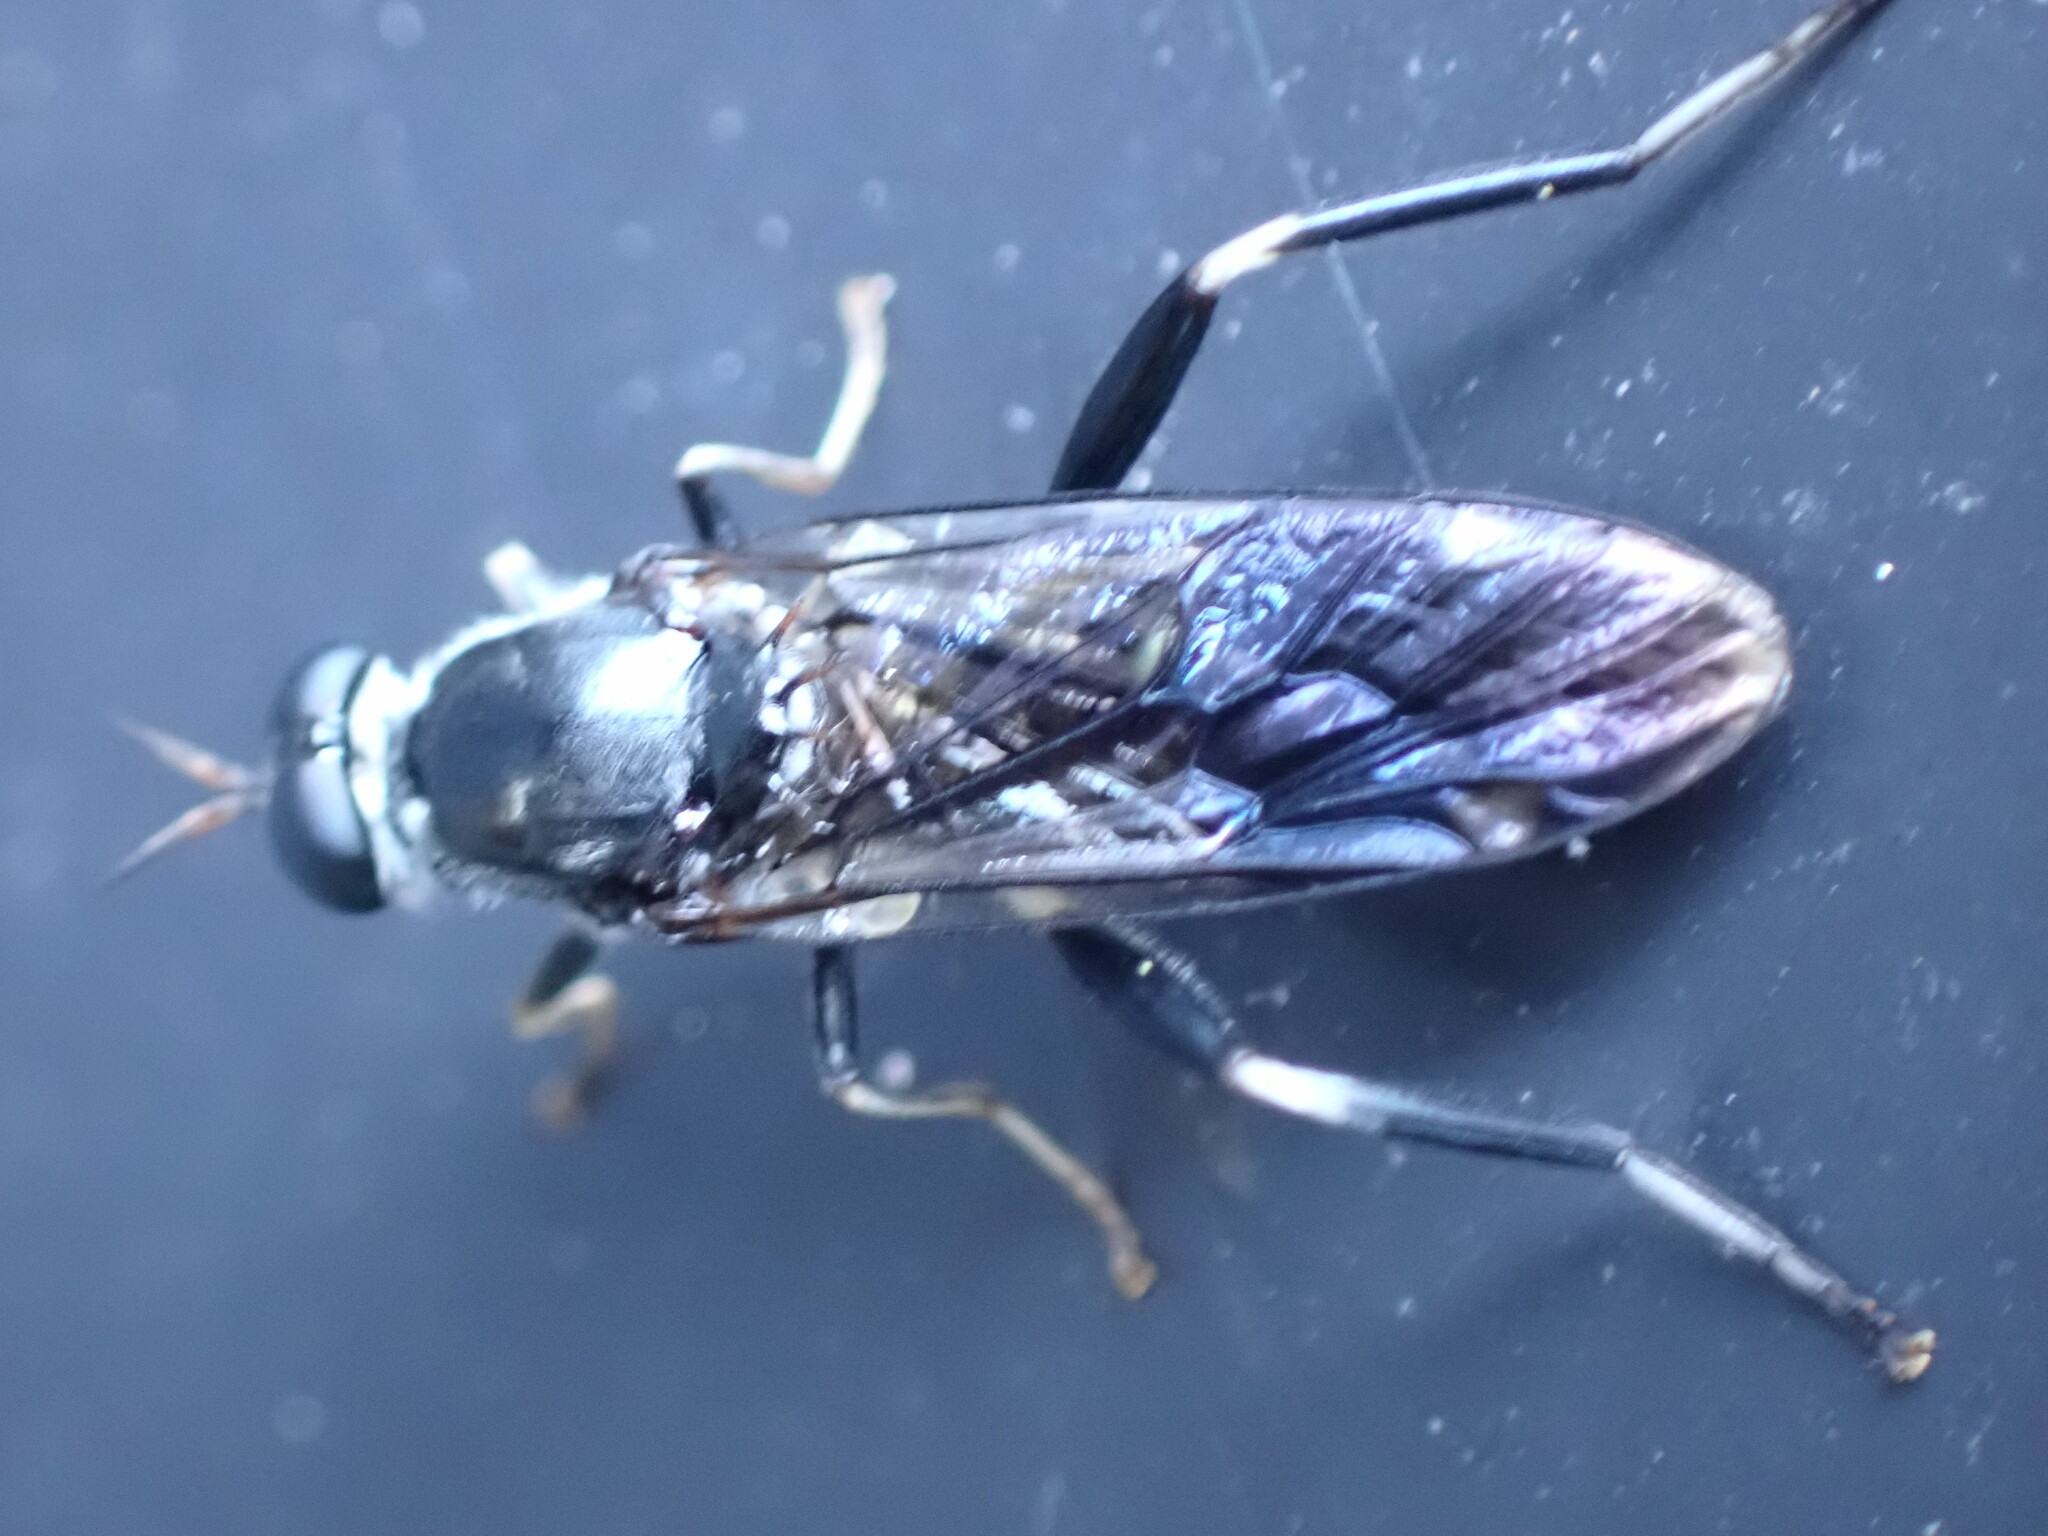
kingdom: Animalia
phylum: Arthropoda
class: Insecta
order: Diptera
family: Stratiomyidae
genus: Exaireta
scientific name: Exaireta spinigera
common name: Blue soldier fly
